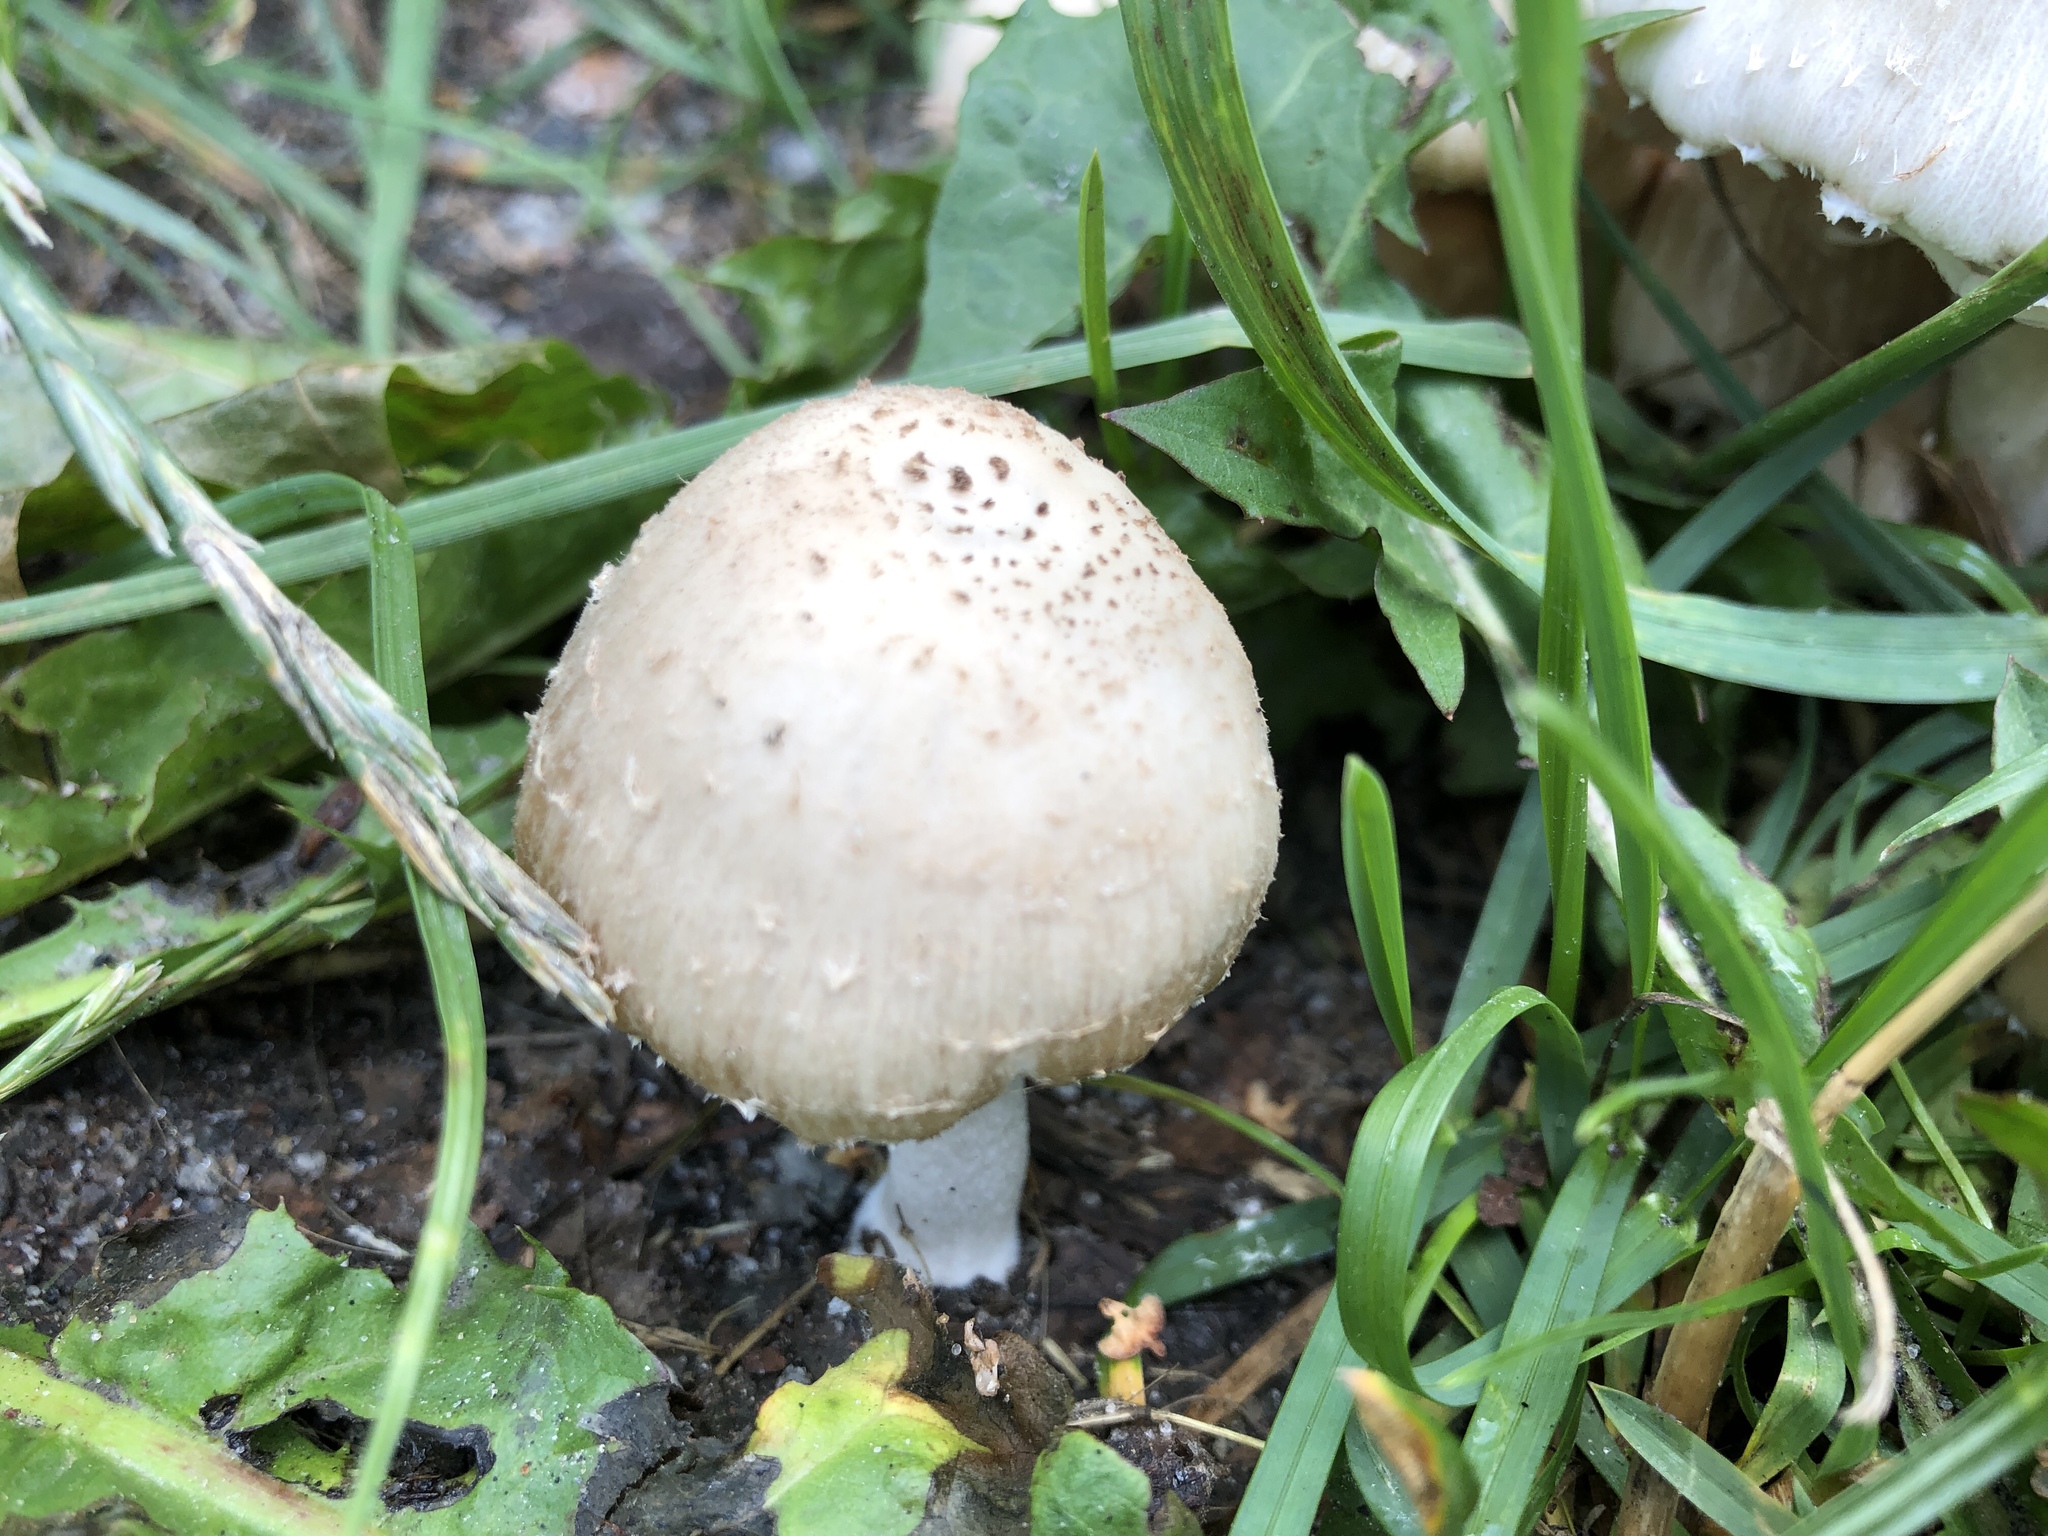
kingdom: Fungi
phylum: Basidiomycota
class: Agaricomycetes
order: Agaricales
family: Psathyrellaceae
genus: Coprinellus
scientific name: Coprinellus micaceus
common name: Glistening ink-cap
